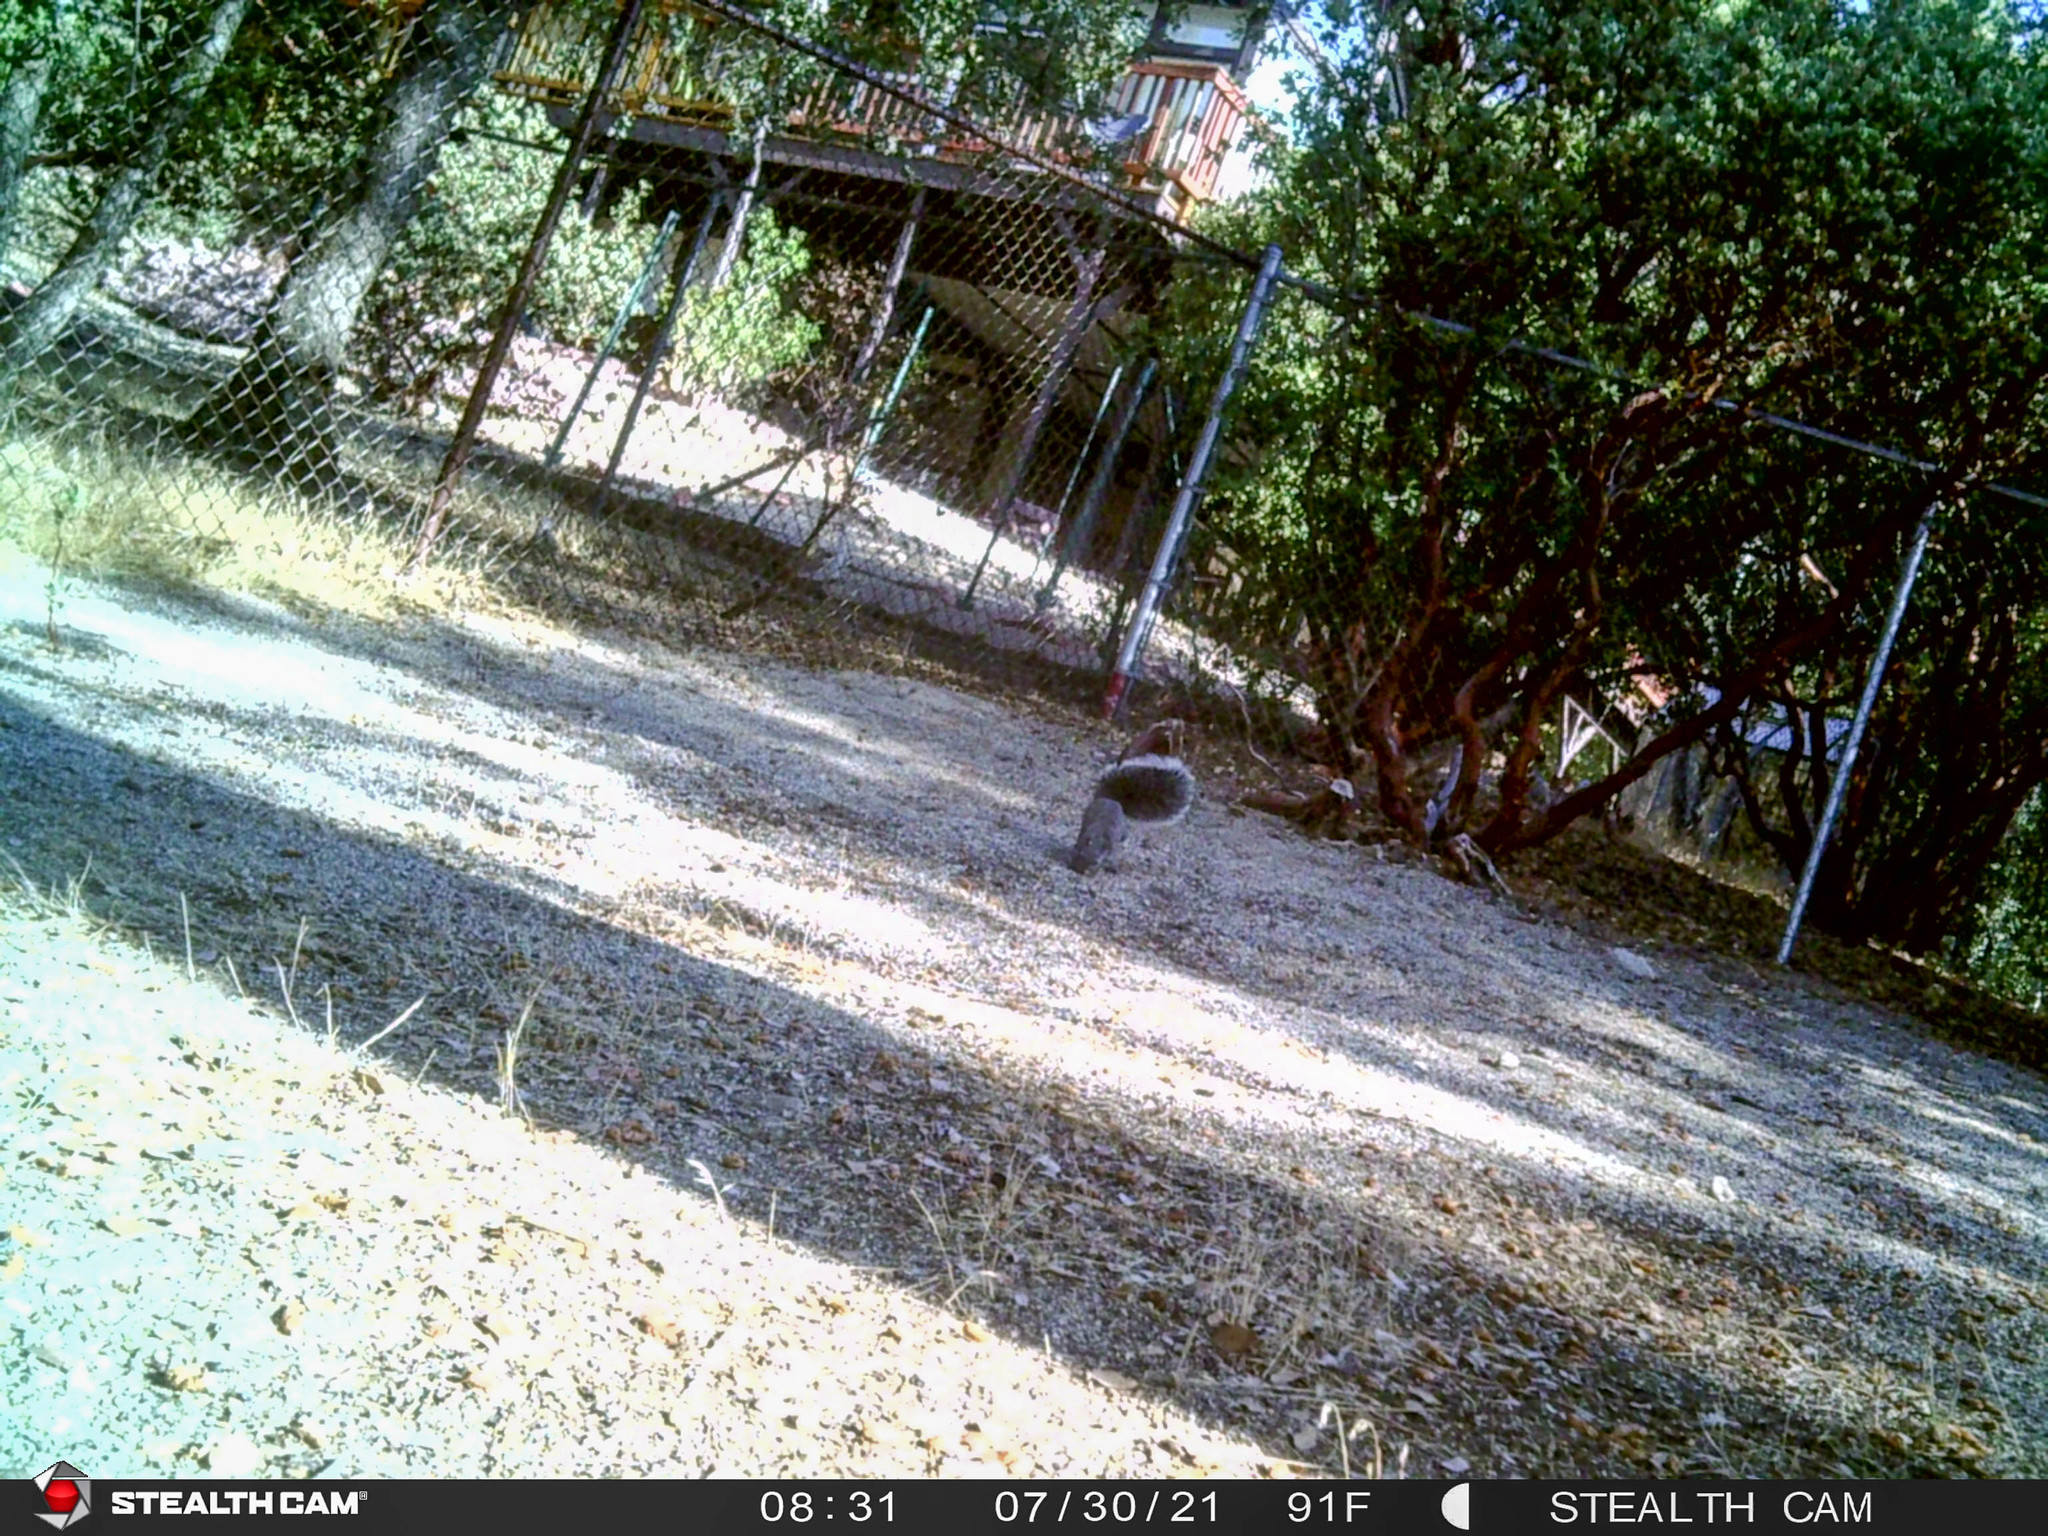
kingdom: Animalia
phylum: Chordata
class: Mammalia
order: Rodentia
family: Sciuridae
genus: Sciurus
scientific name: Sciurus griseus
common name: Western gray squirrel
